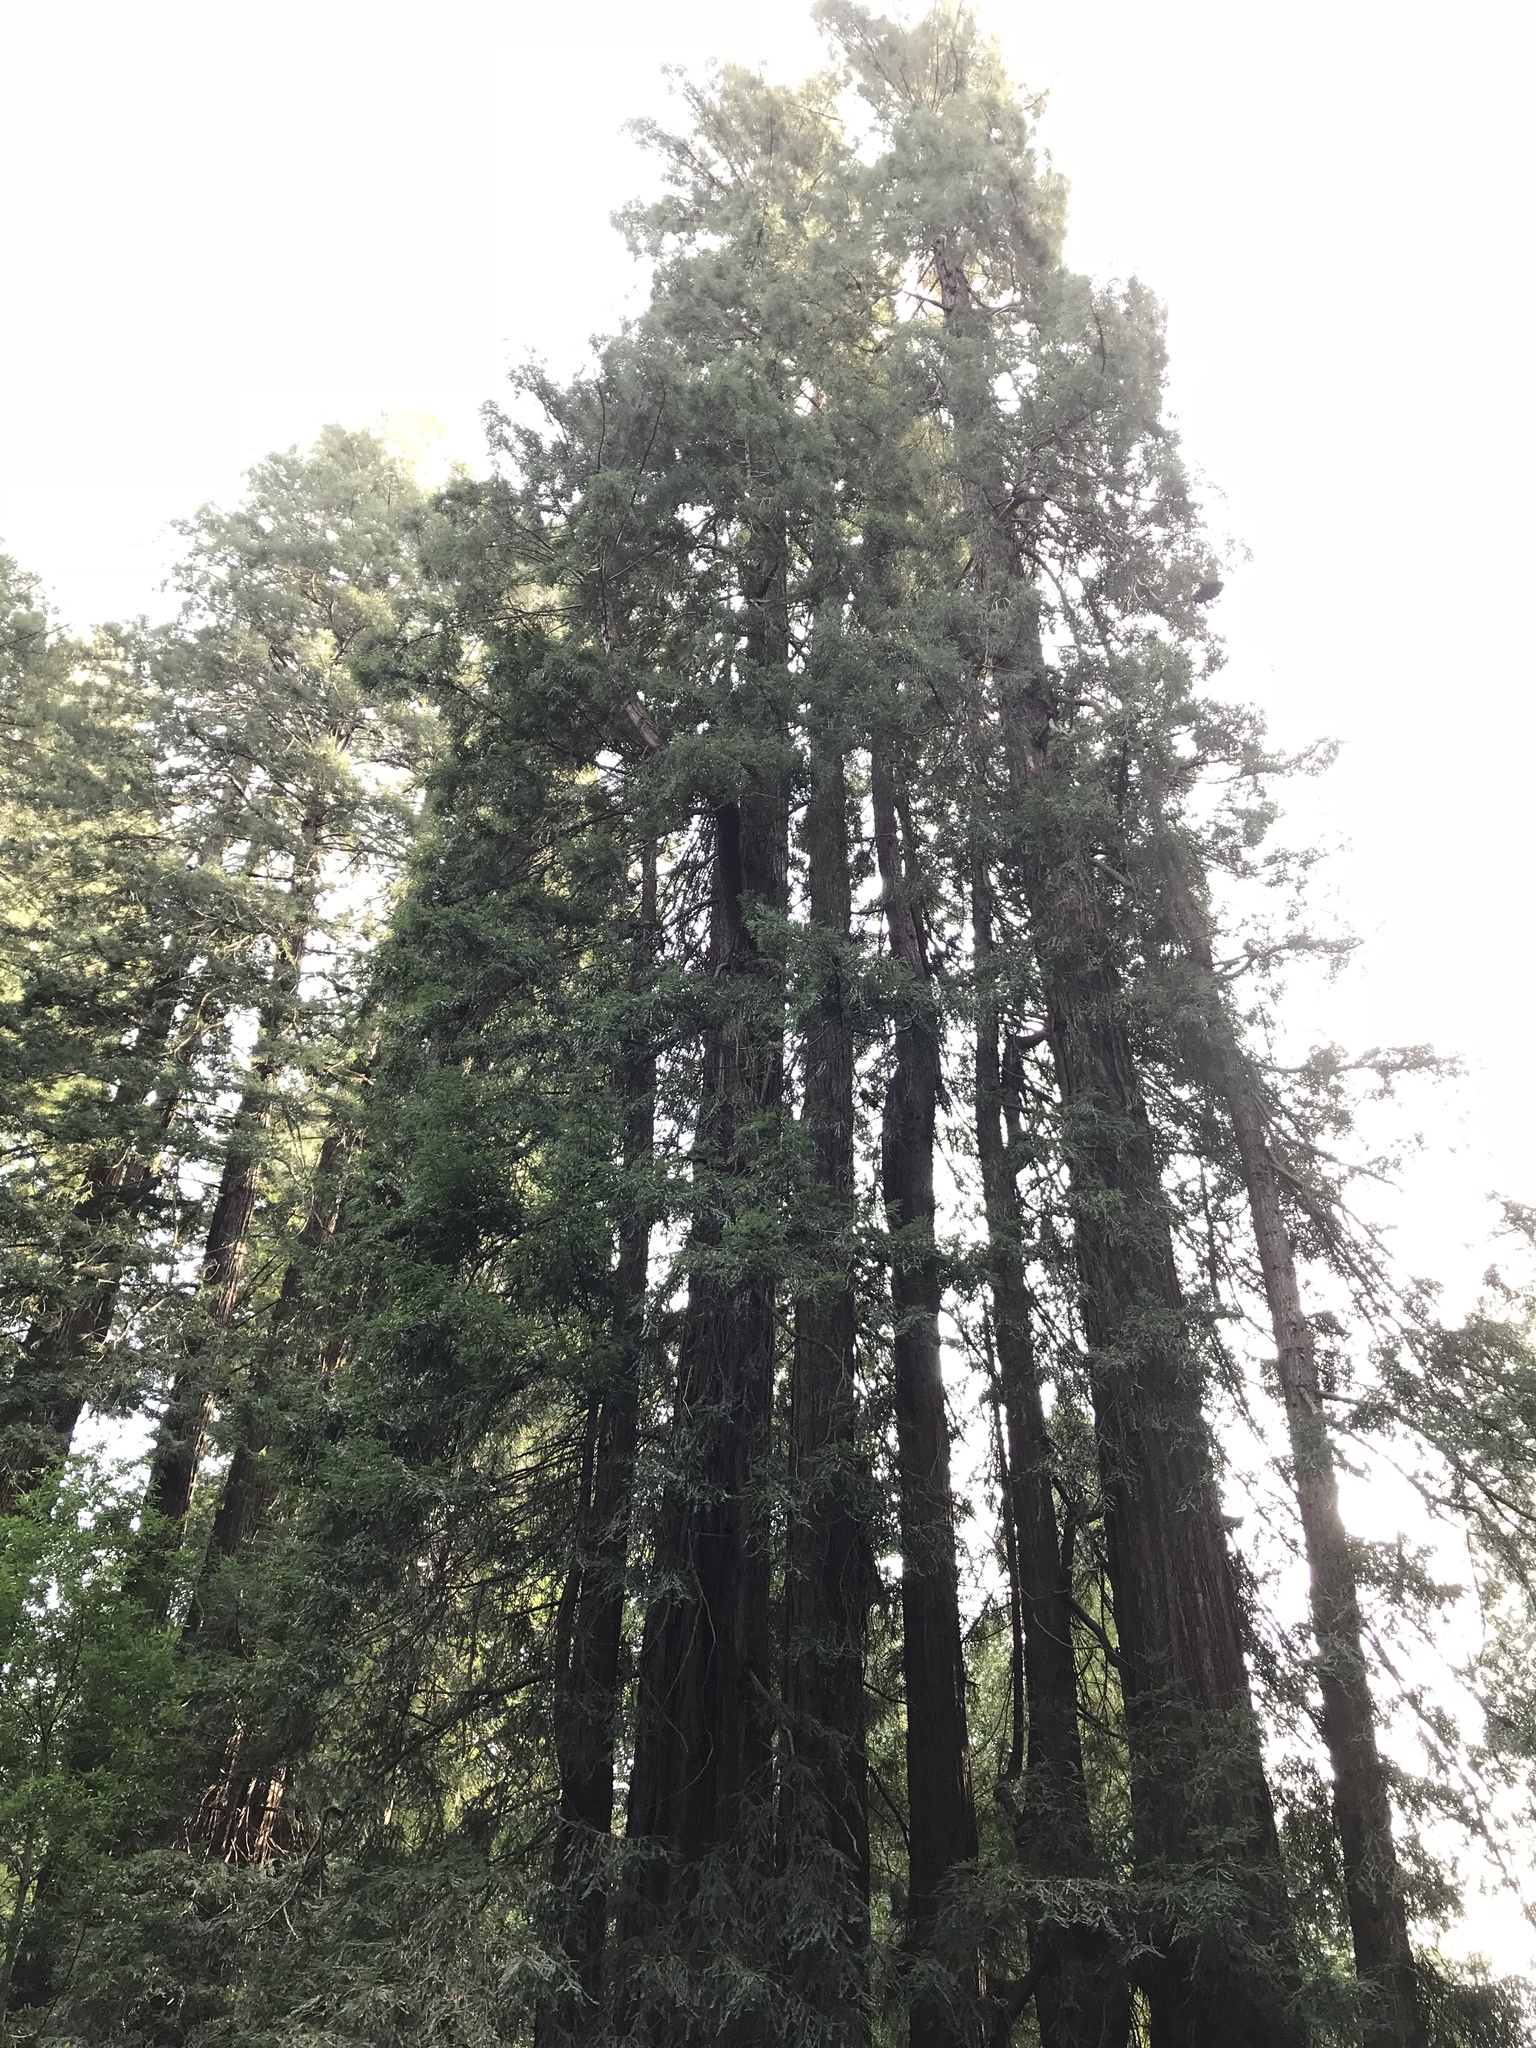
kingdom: Plantae
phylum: Tracheophyta
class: Pinopsida
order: Pinales
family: Cupressaceae
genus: Sequoia
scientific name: Sequoia sempervirens
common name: Coast redwood
